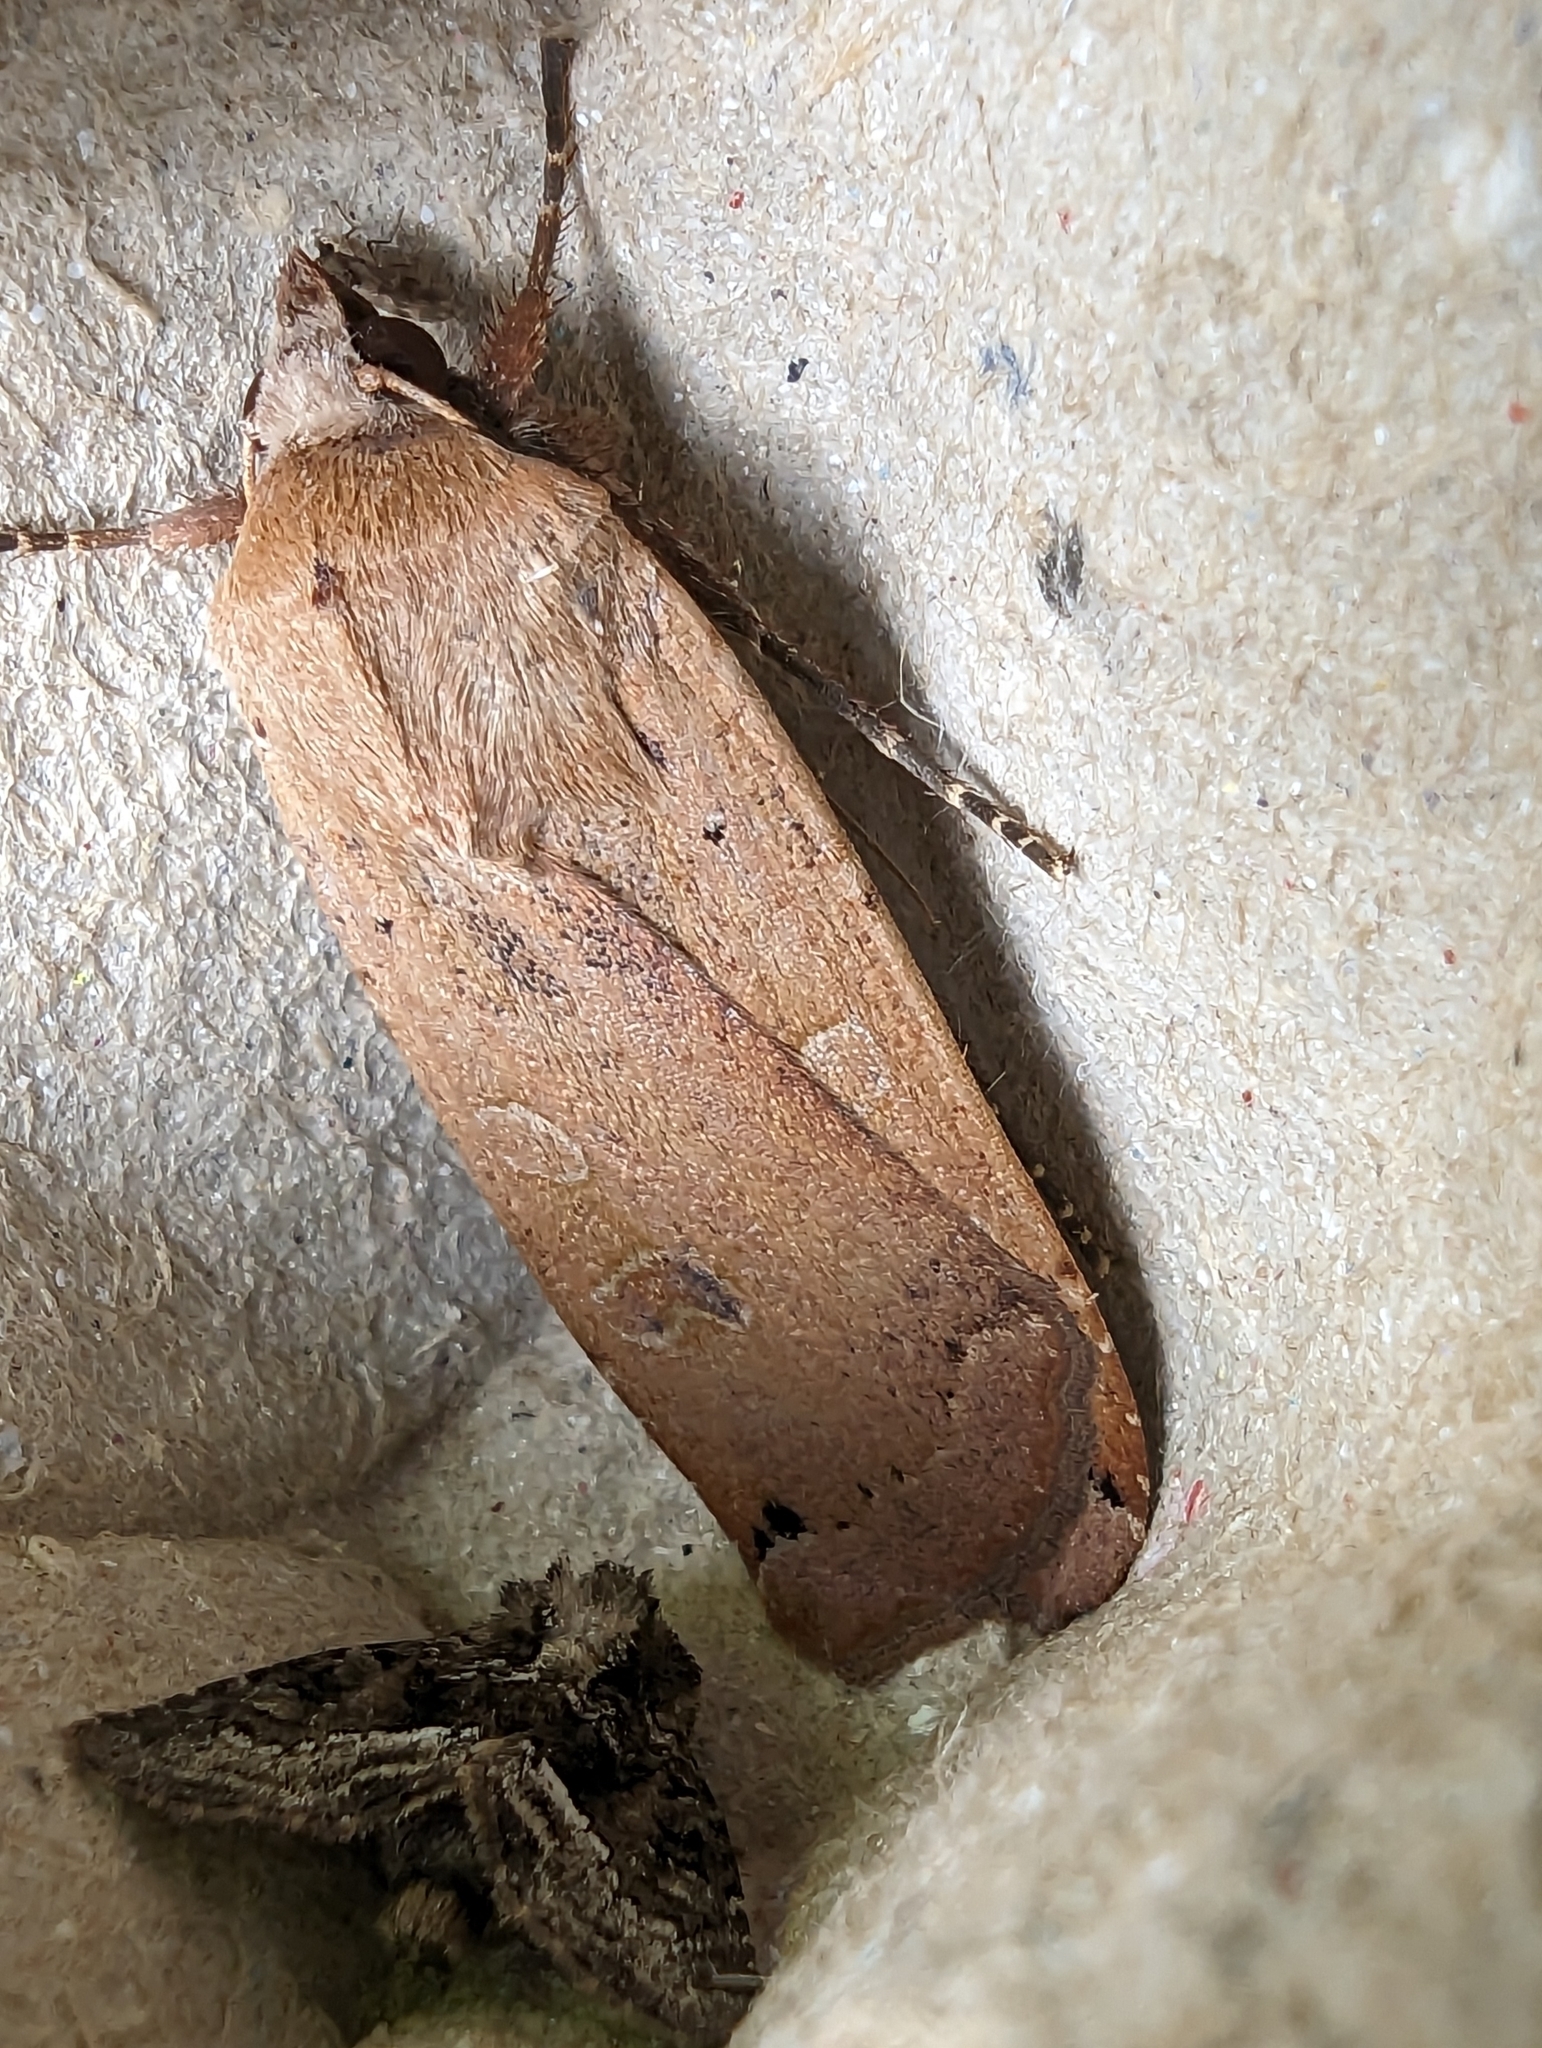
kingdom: Animalia
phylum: Arthropoda
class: Insecta
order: Lepidoptera
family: Noctuidae
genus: Noctua
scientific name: Noctua pronuba
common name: Large yellow underwing
